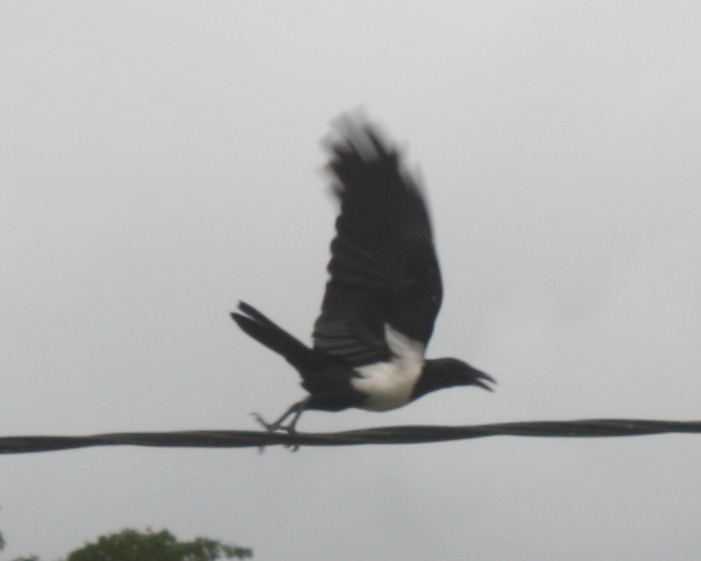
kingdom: Animalia
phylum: Chordata
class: Aves
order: Passeriformes
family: Corvidae
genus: Corvus
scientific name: Corvus albus
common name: Pied crow
